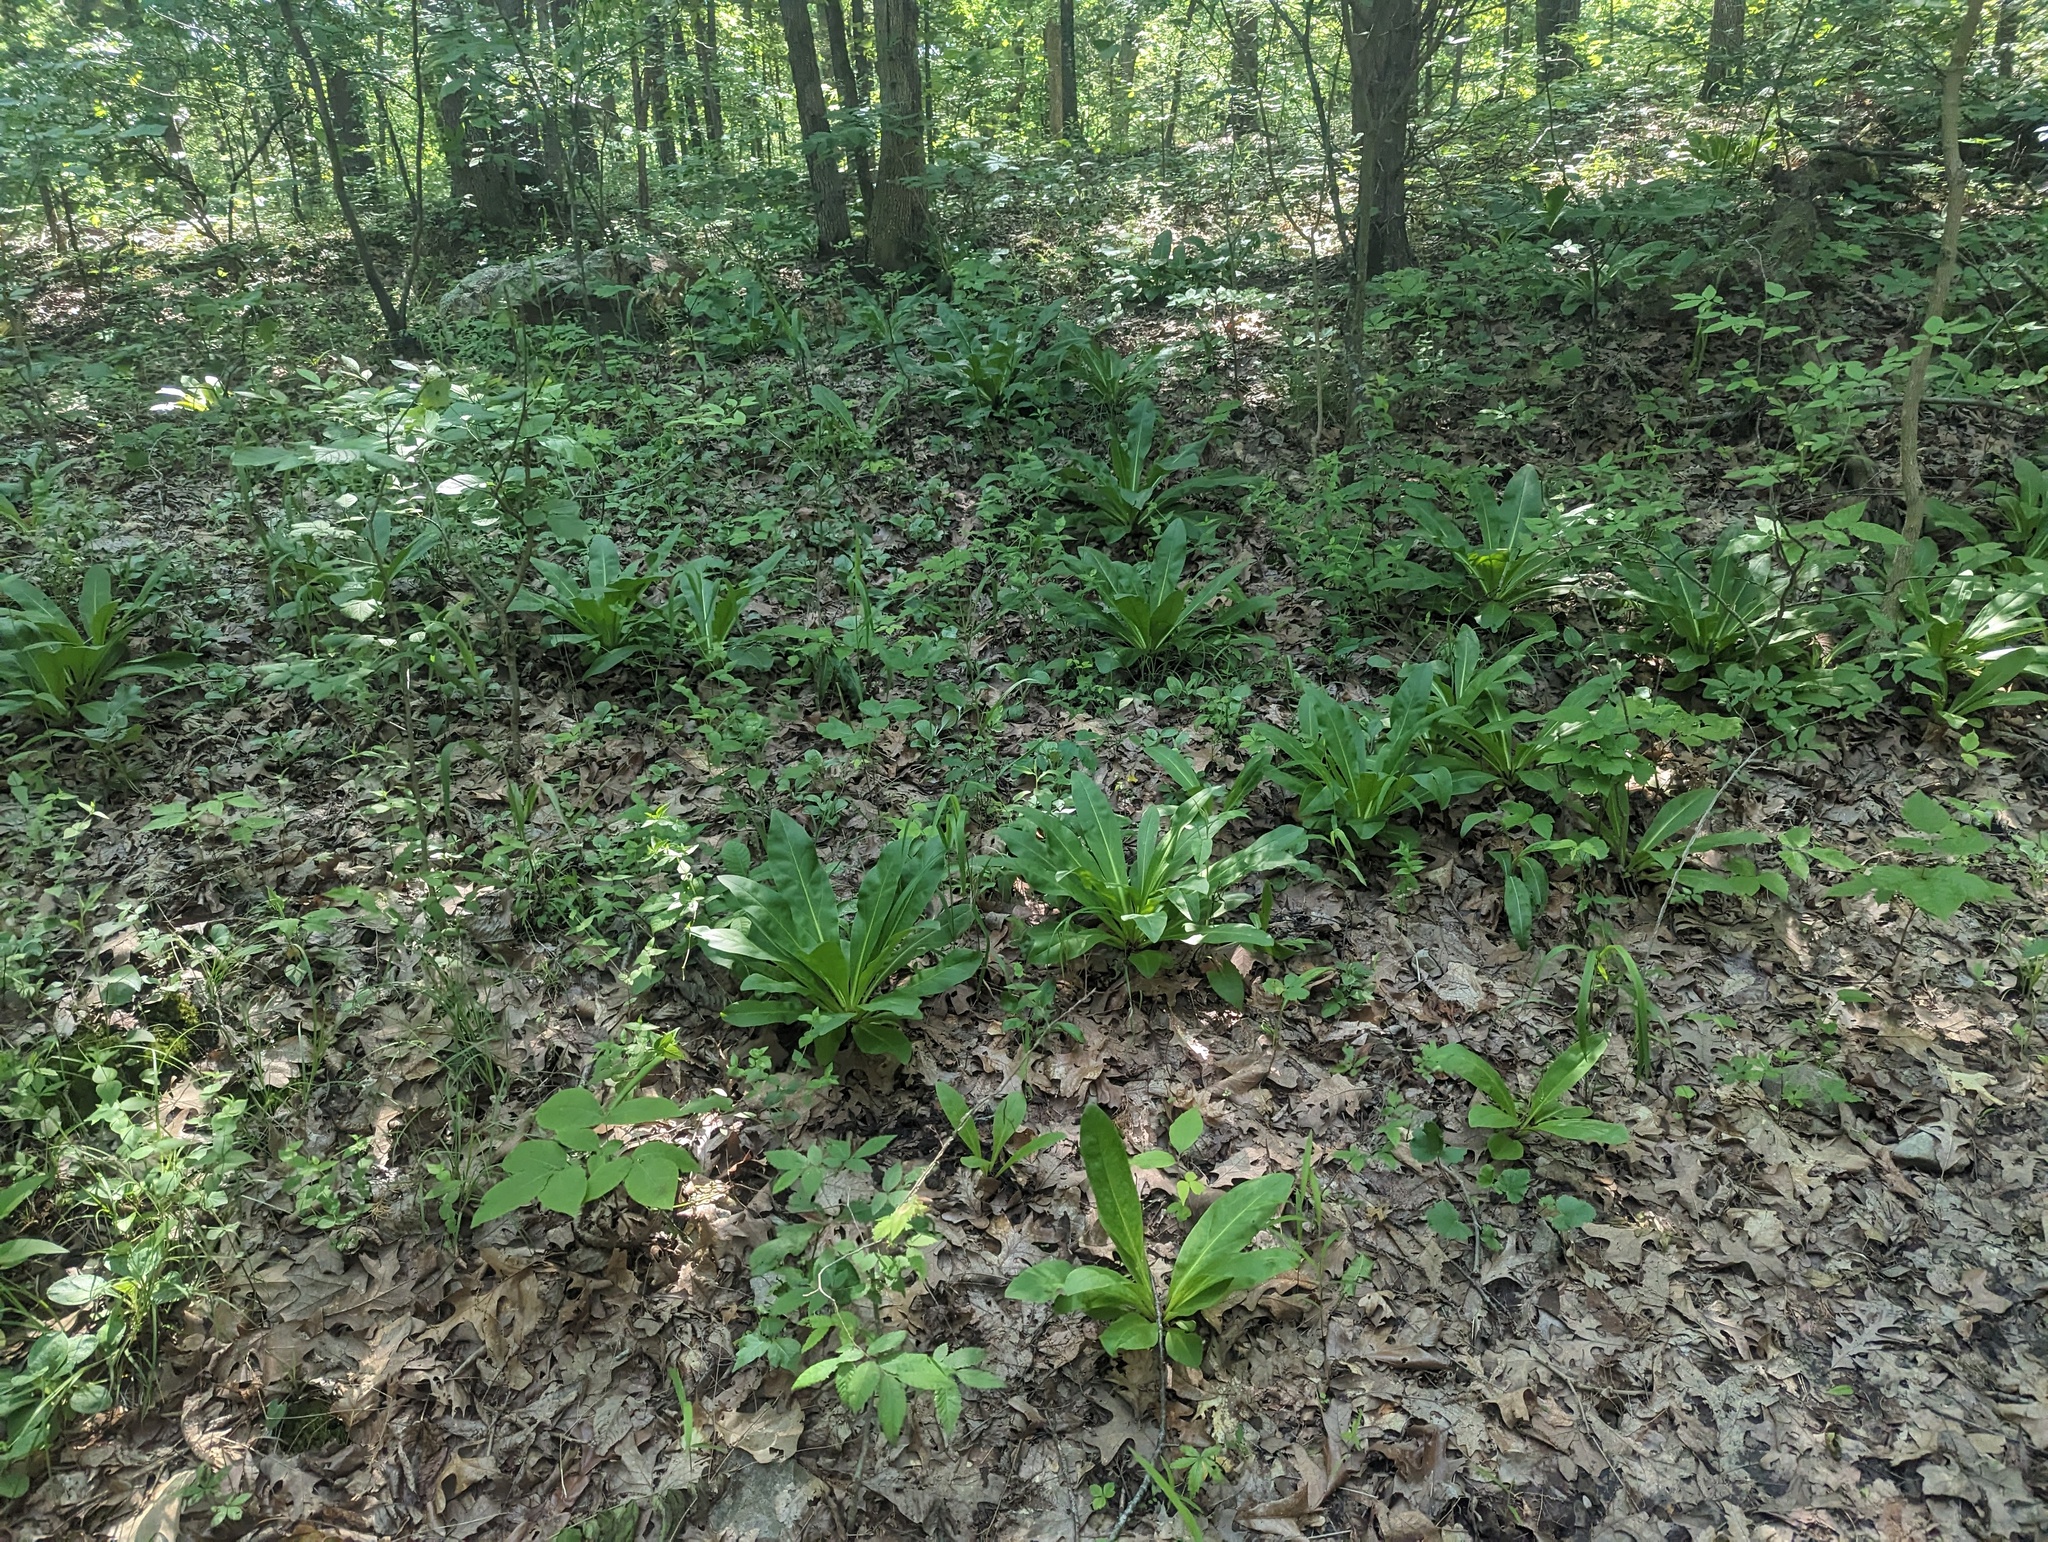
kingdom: Plantae
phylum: Tracheophyta
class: Magnoliopsida
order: Gentianales
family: Gentianaceae
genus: Frasera
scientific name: Frasera caroliniensis
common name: American columbo
